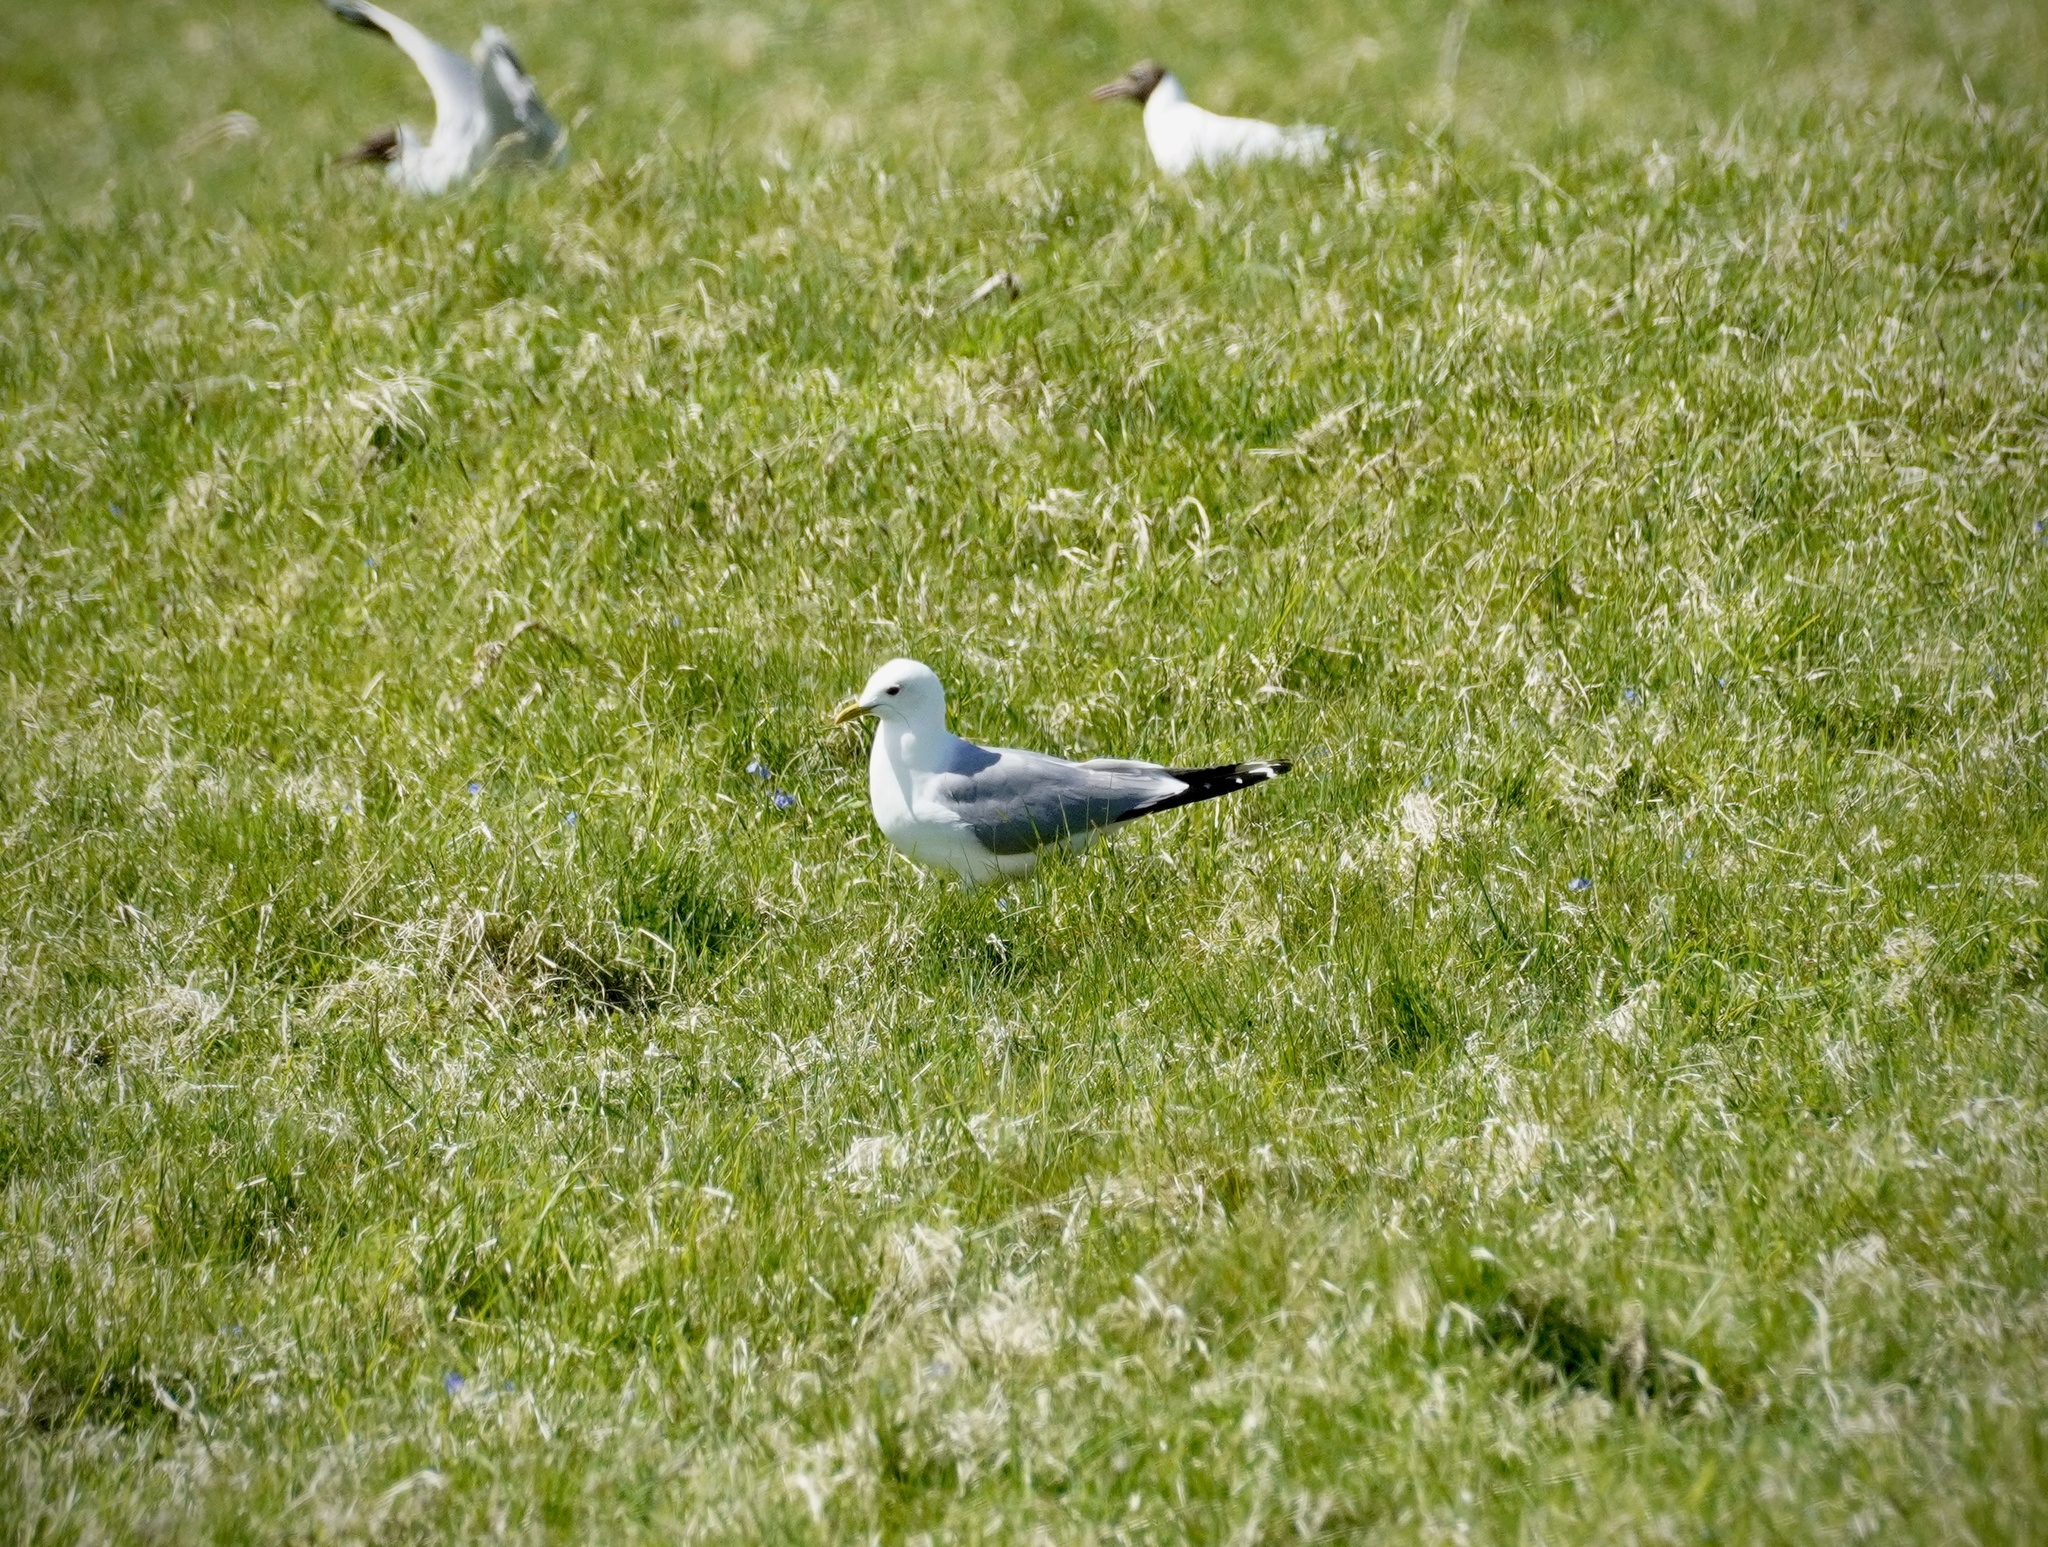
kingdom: Animalia
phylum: Chordata
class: Aves
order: Charadriiformes
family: Laridae
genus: Larus
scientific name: Larus canus
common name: Mew gull
